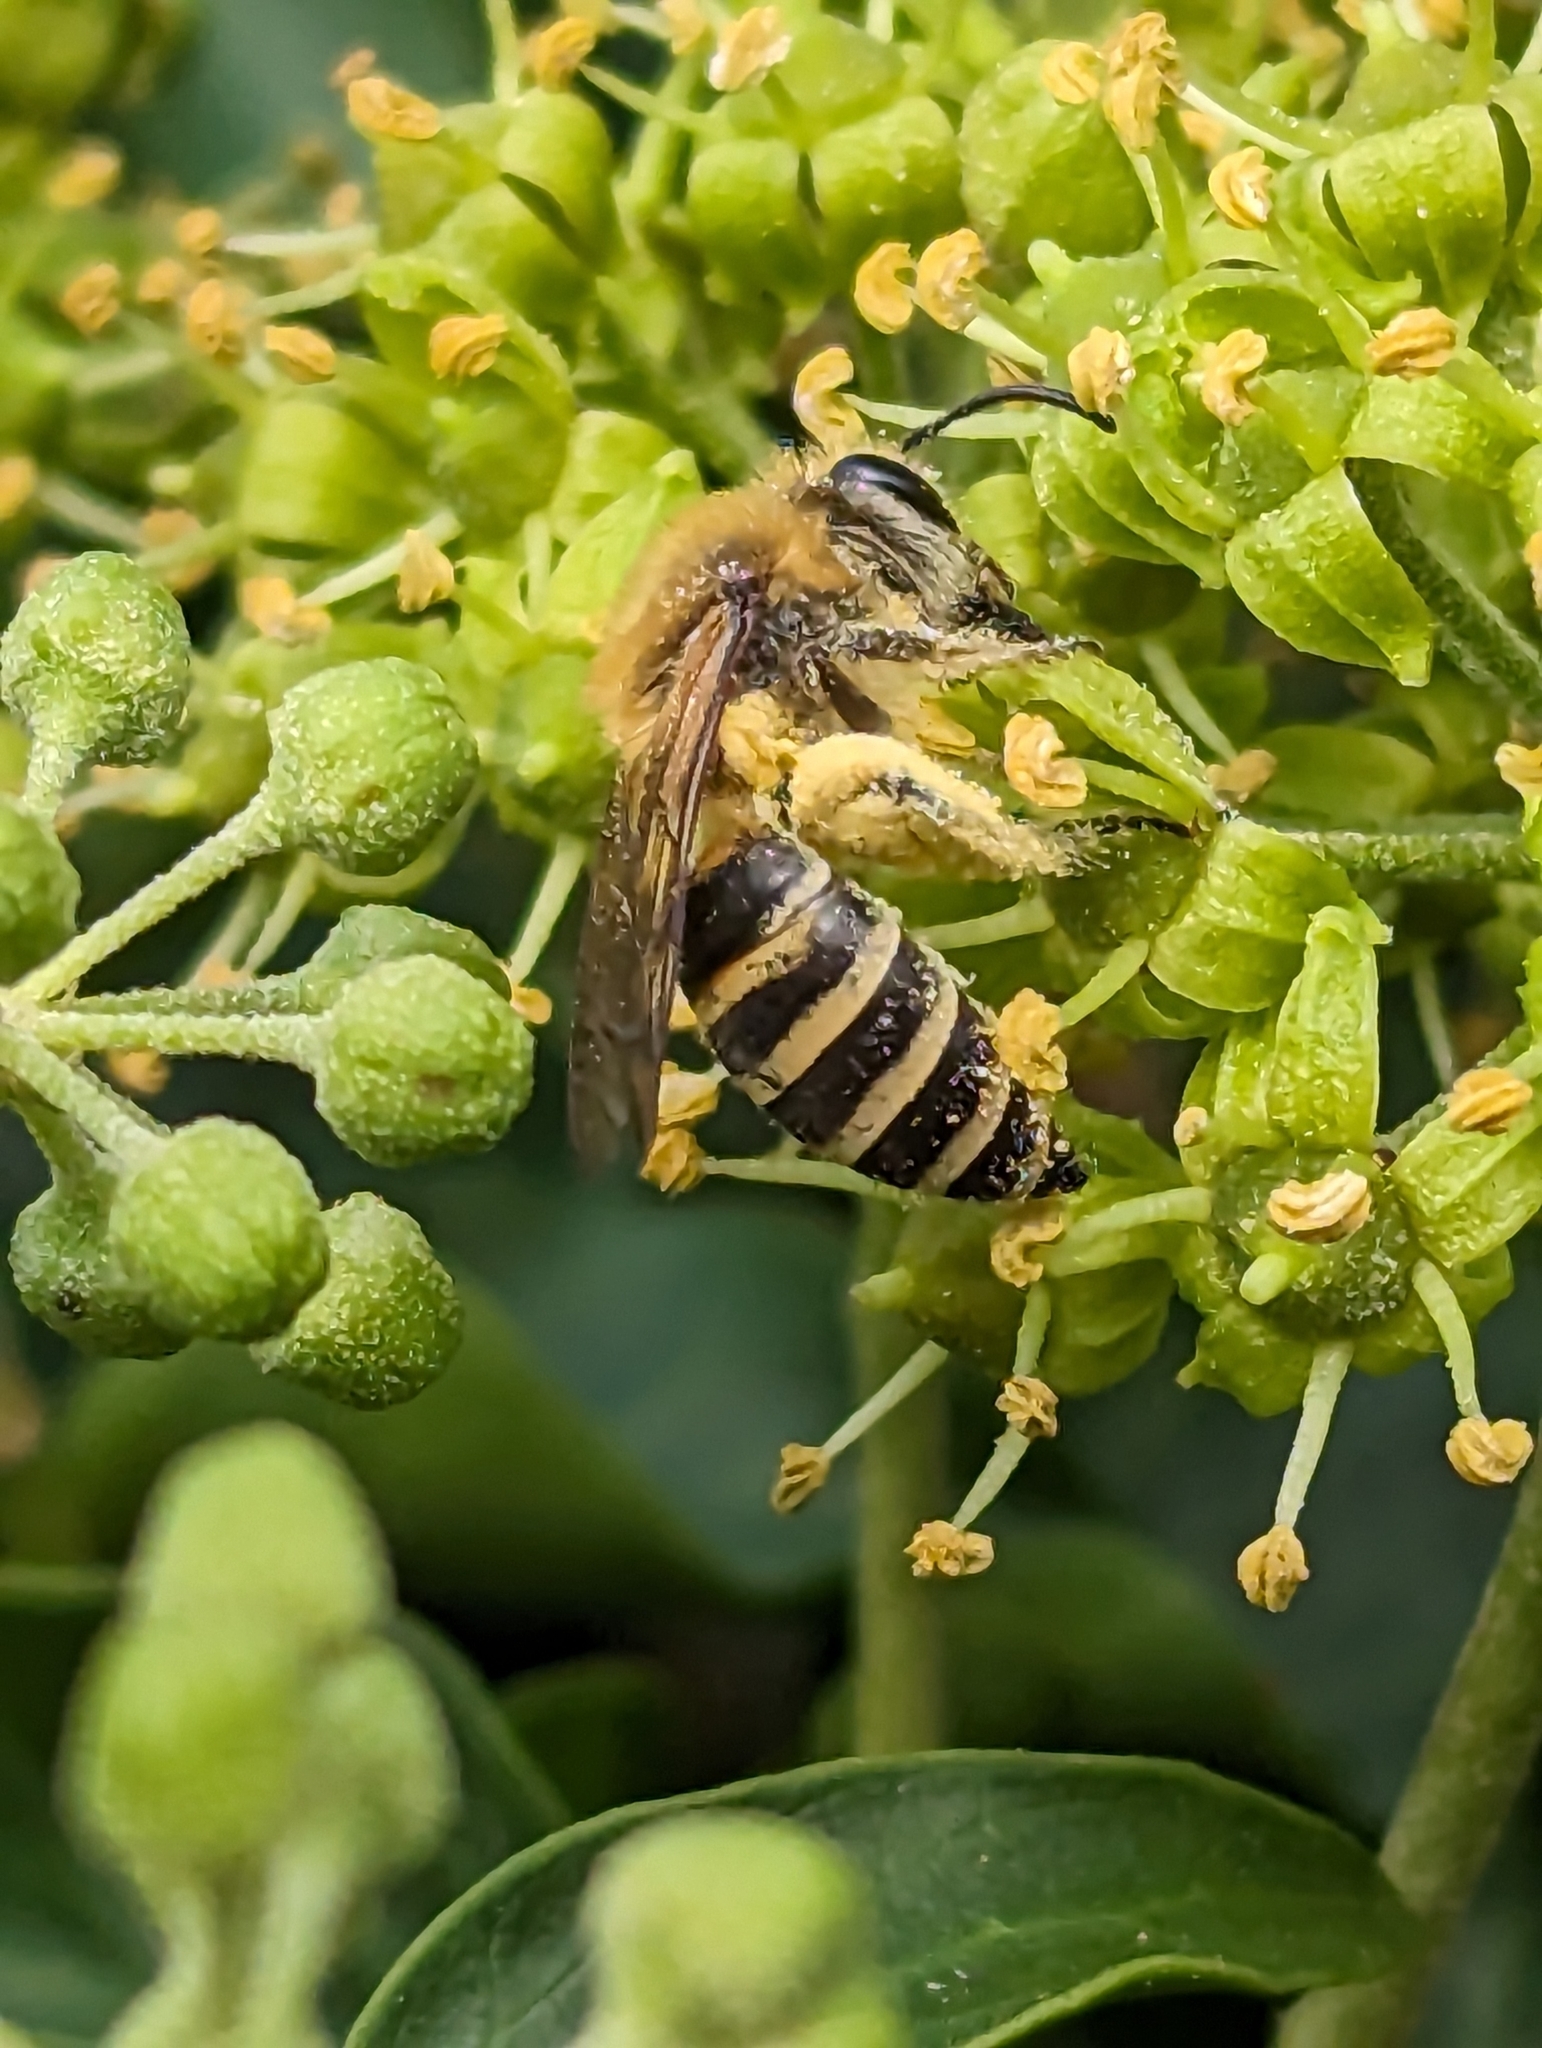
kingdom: Animalia
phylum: Arthropoda
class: Insecta
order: Hymenoptera
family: Colletidae
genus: Colletes
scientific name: Colletes hederae
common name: Ivy bee
